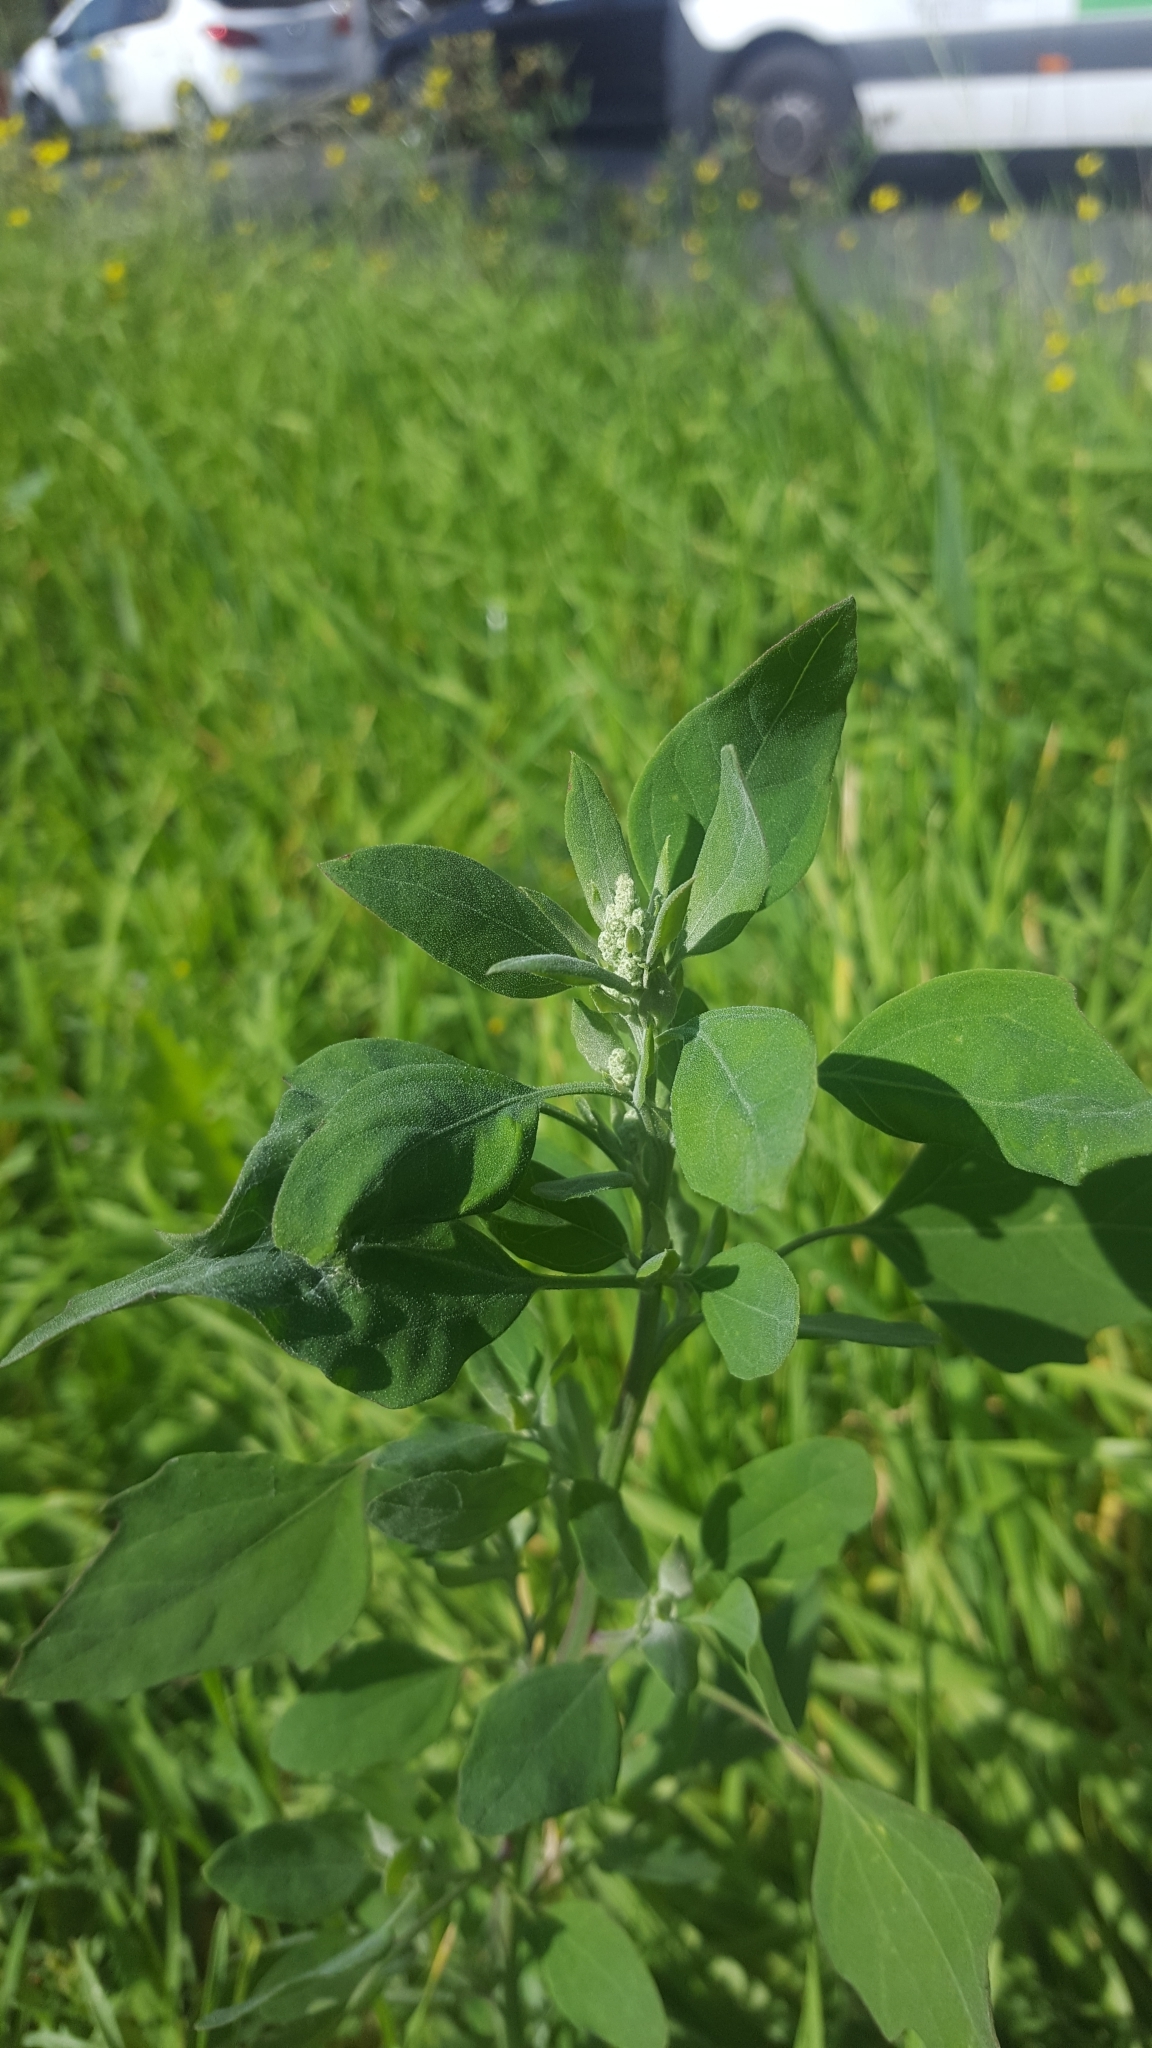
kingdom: Plantae
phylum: Tracheophyta
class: Magnoliopsida
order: Caryophyllales
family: Amaranthaceae
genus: Chenopodium
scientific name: Chenopodium album
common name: Fat-hen
